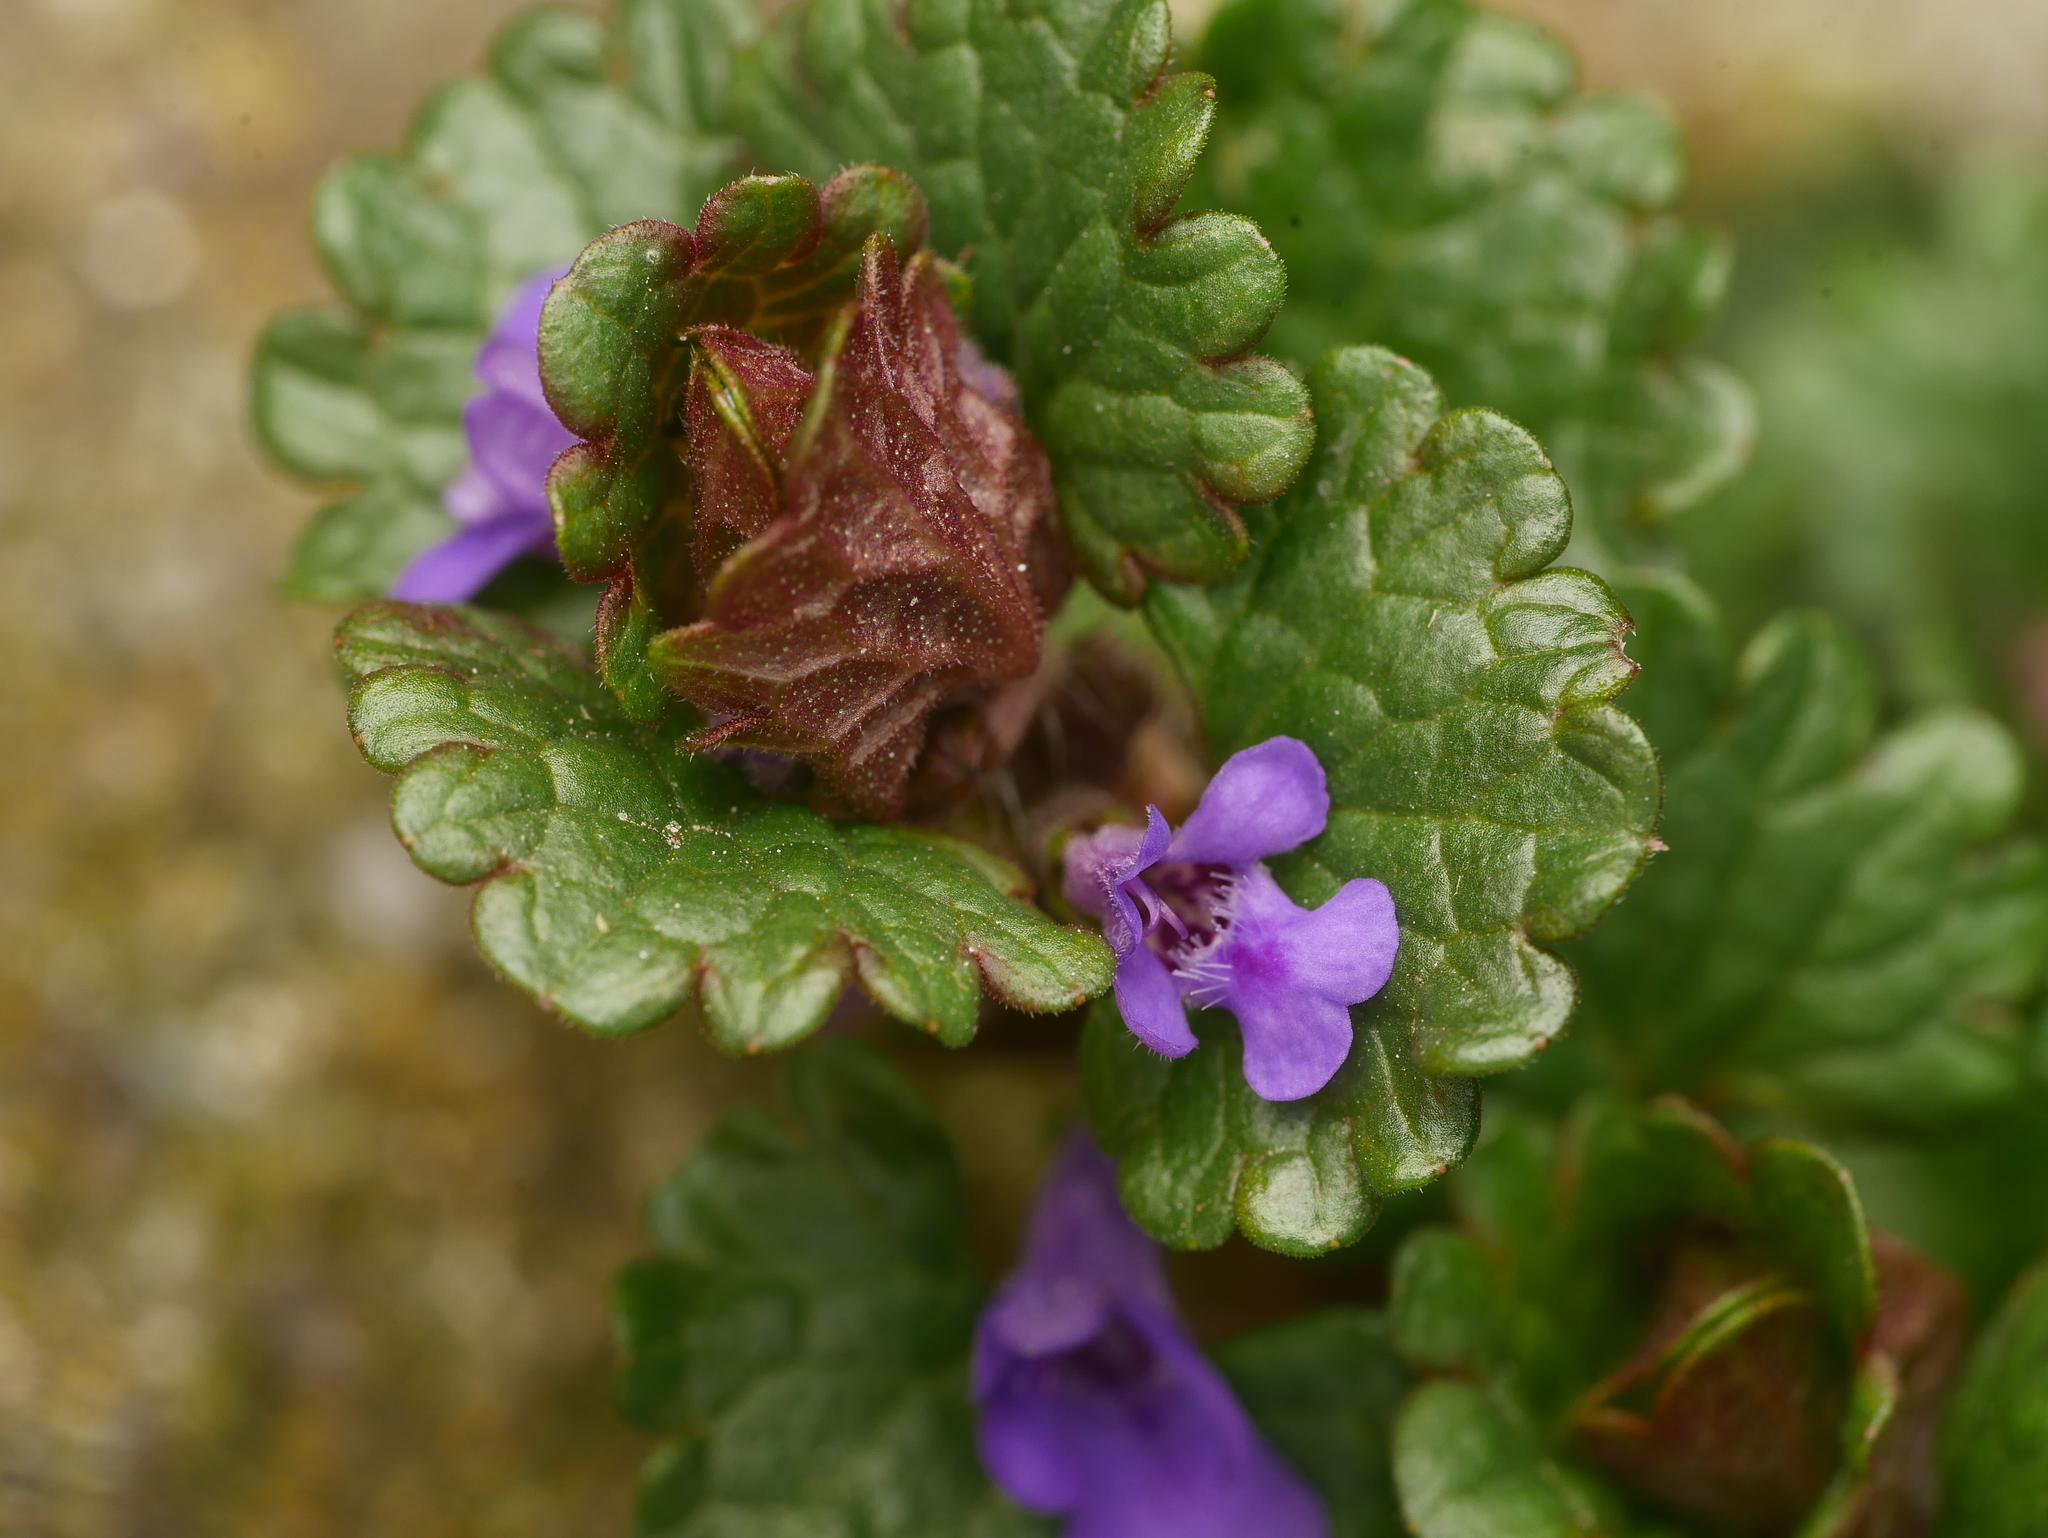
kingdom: Plantae
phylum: Tracheophyta
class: Magnoliopsida
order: Lamiales
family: Lamiaceae
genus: Glechoma
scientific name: Glechoma hederacea
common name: Ground ivy
